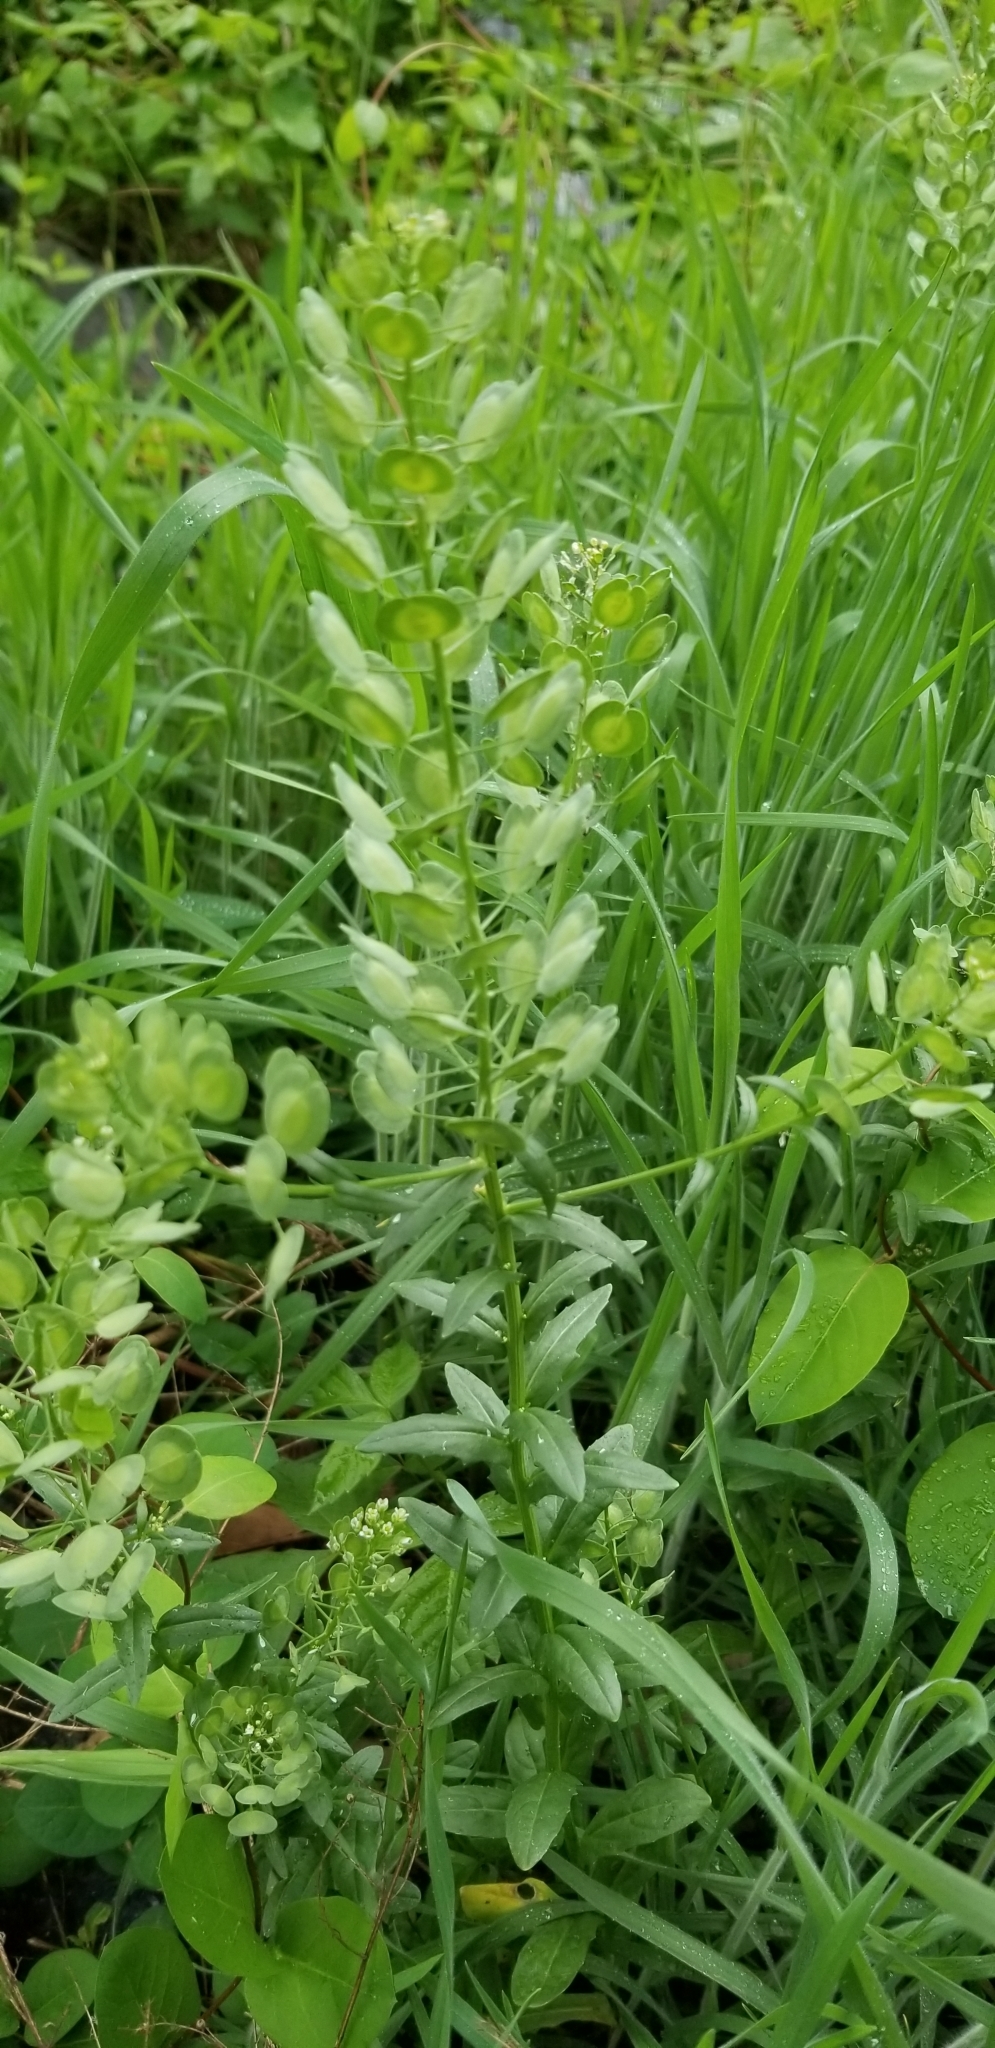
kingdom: Plantae
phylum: Tracheophyta
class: Magnoliopsida
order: Brassicales
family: Brassicaceae
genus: Thlaspi
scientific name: Thlaspi arvense
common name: Field pennycress
